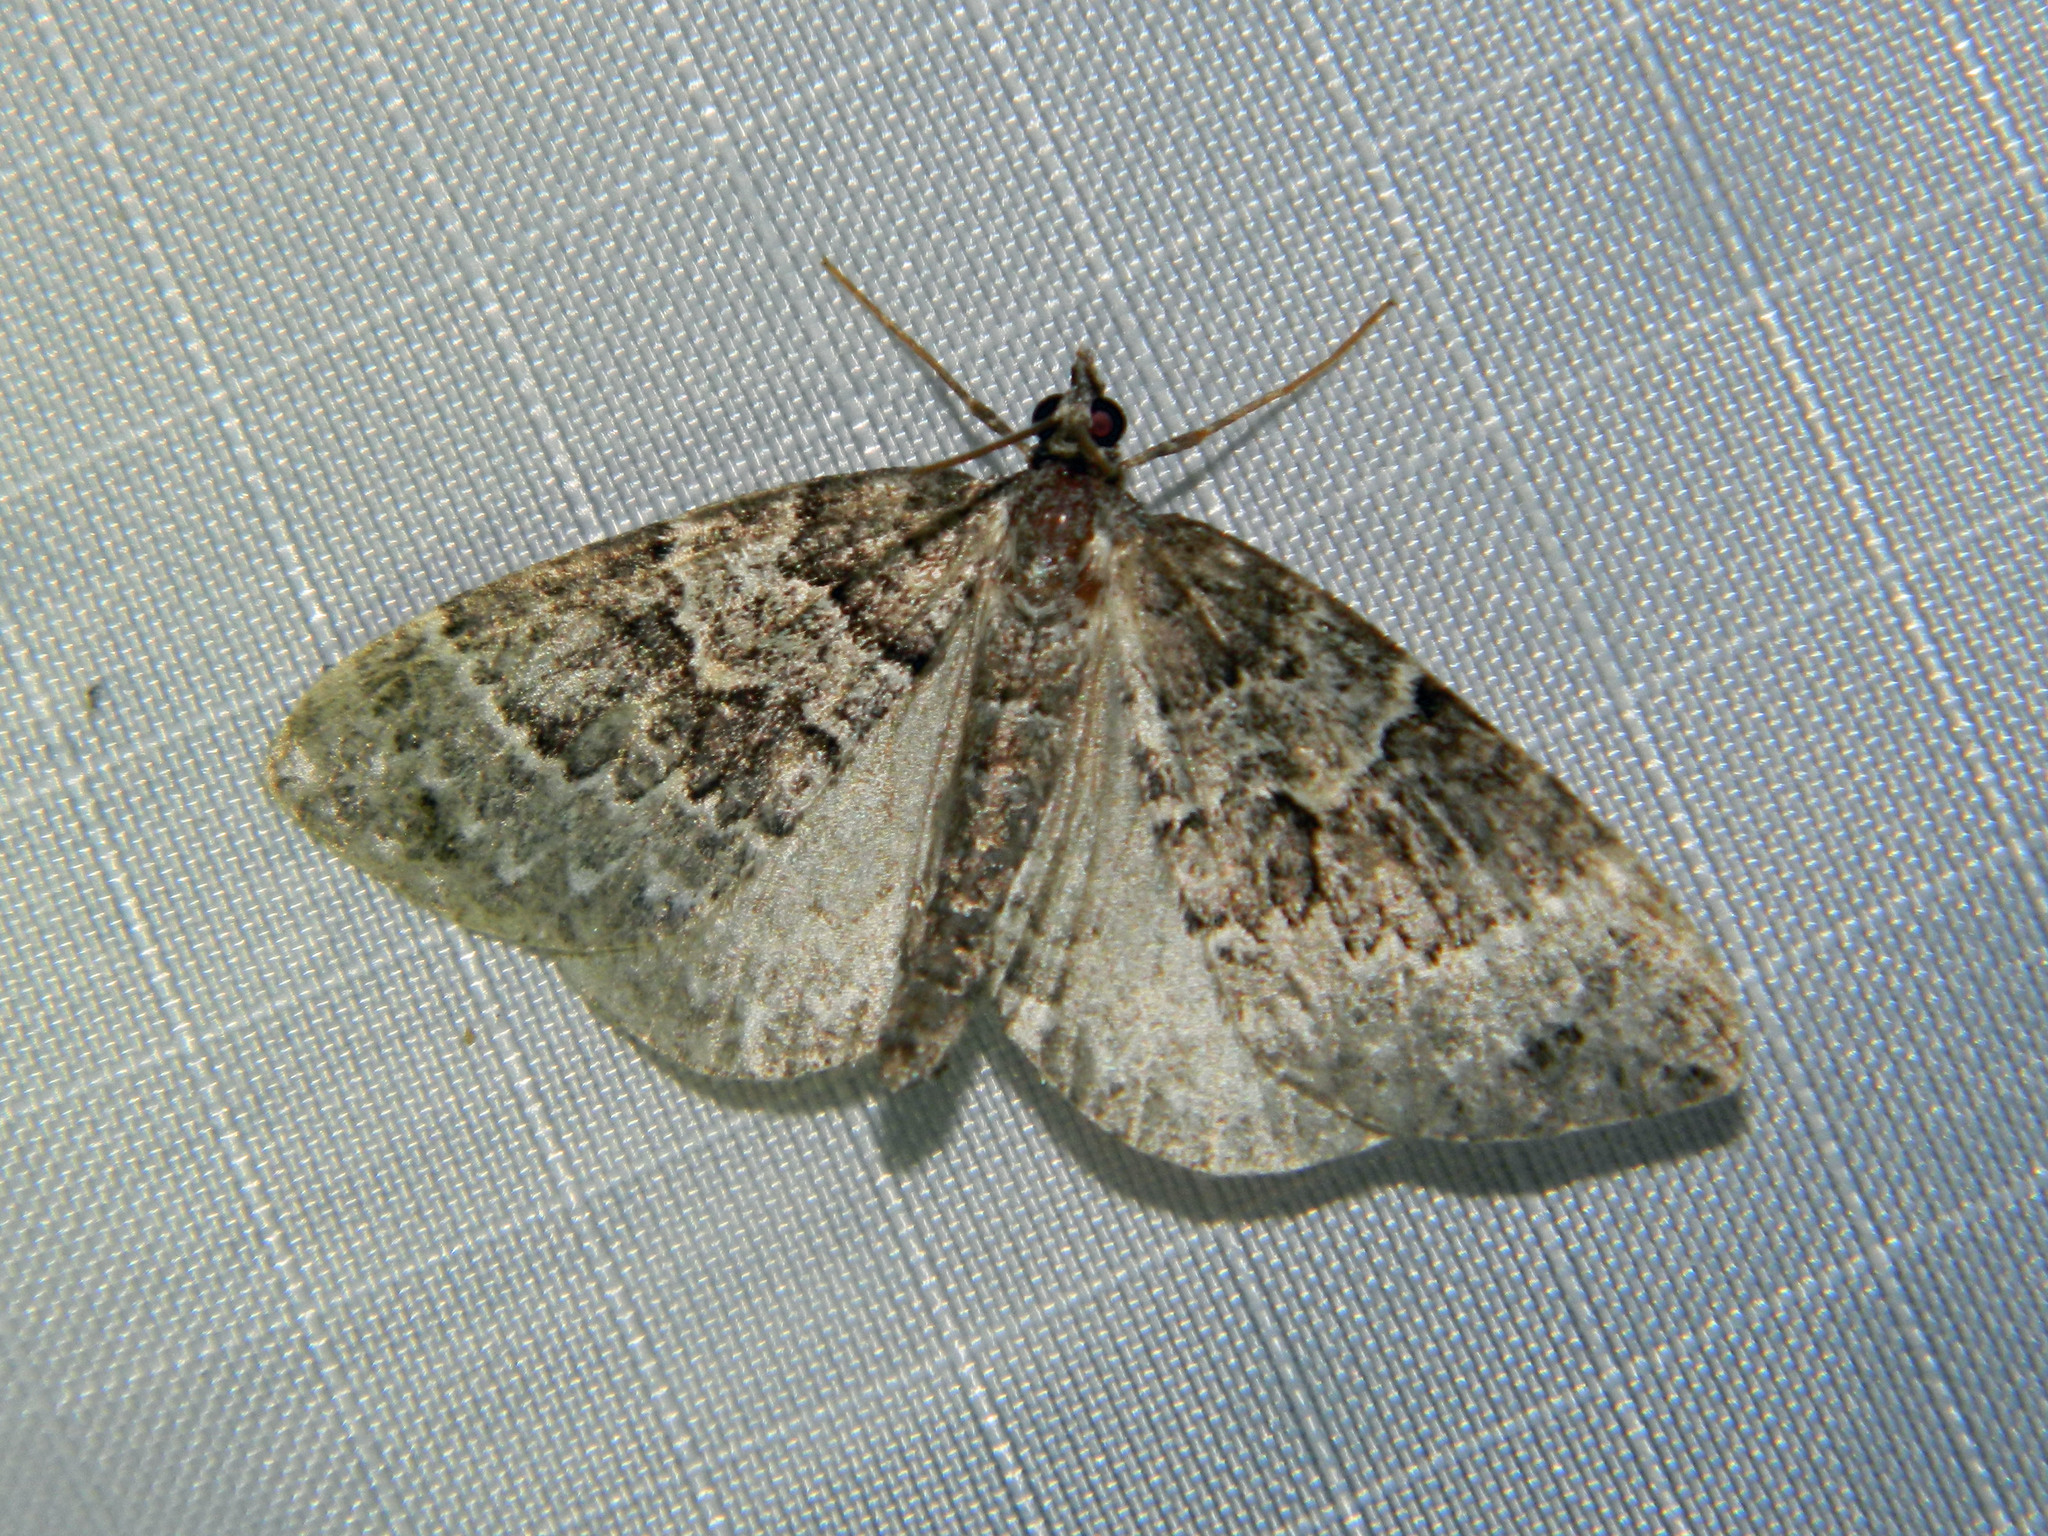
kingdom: Animalia
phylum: Arthropoda
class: Insecta
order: Lepidoptera
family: Geometridae
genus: Eulithis
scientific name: Eulithis explanata
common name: White eulithis
